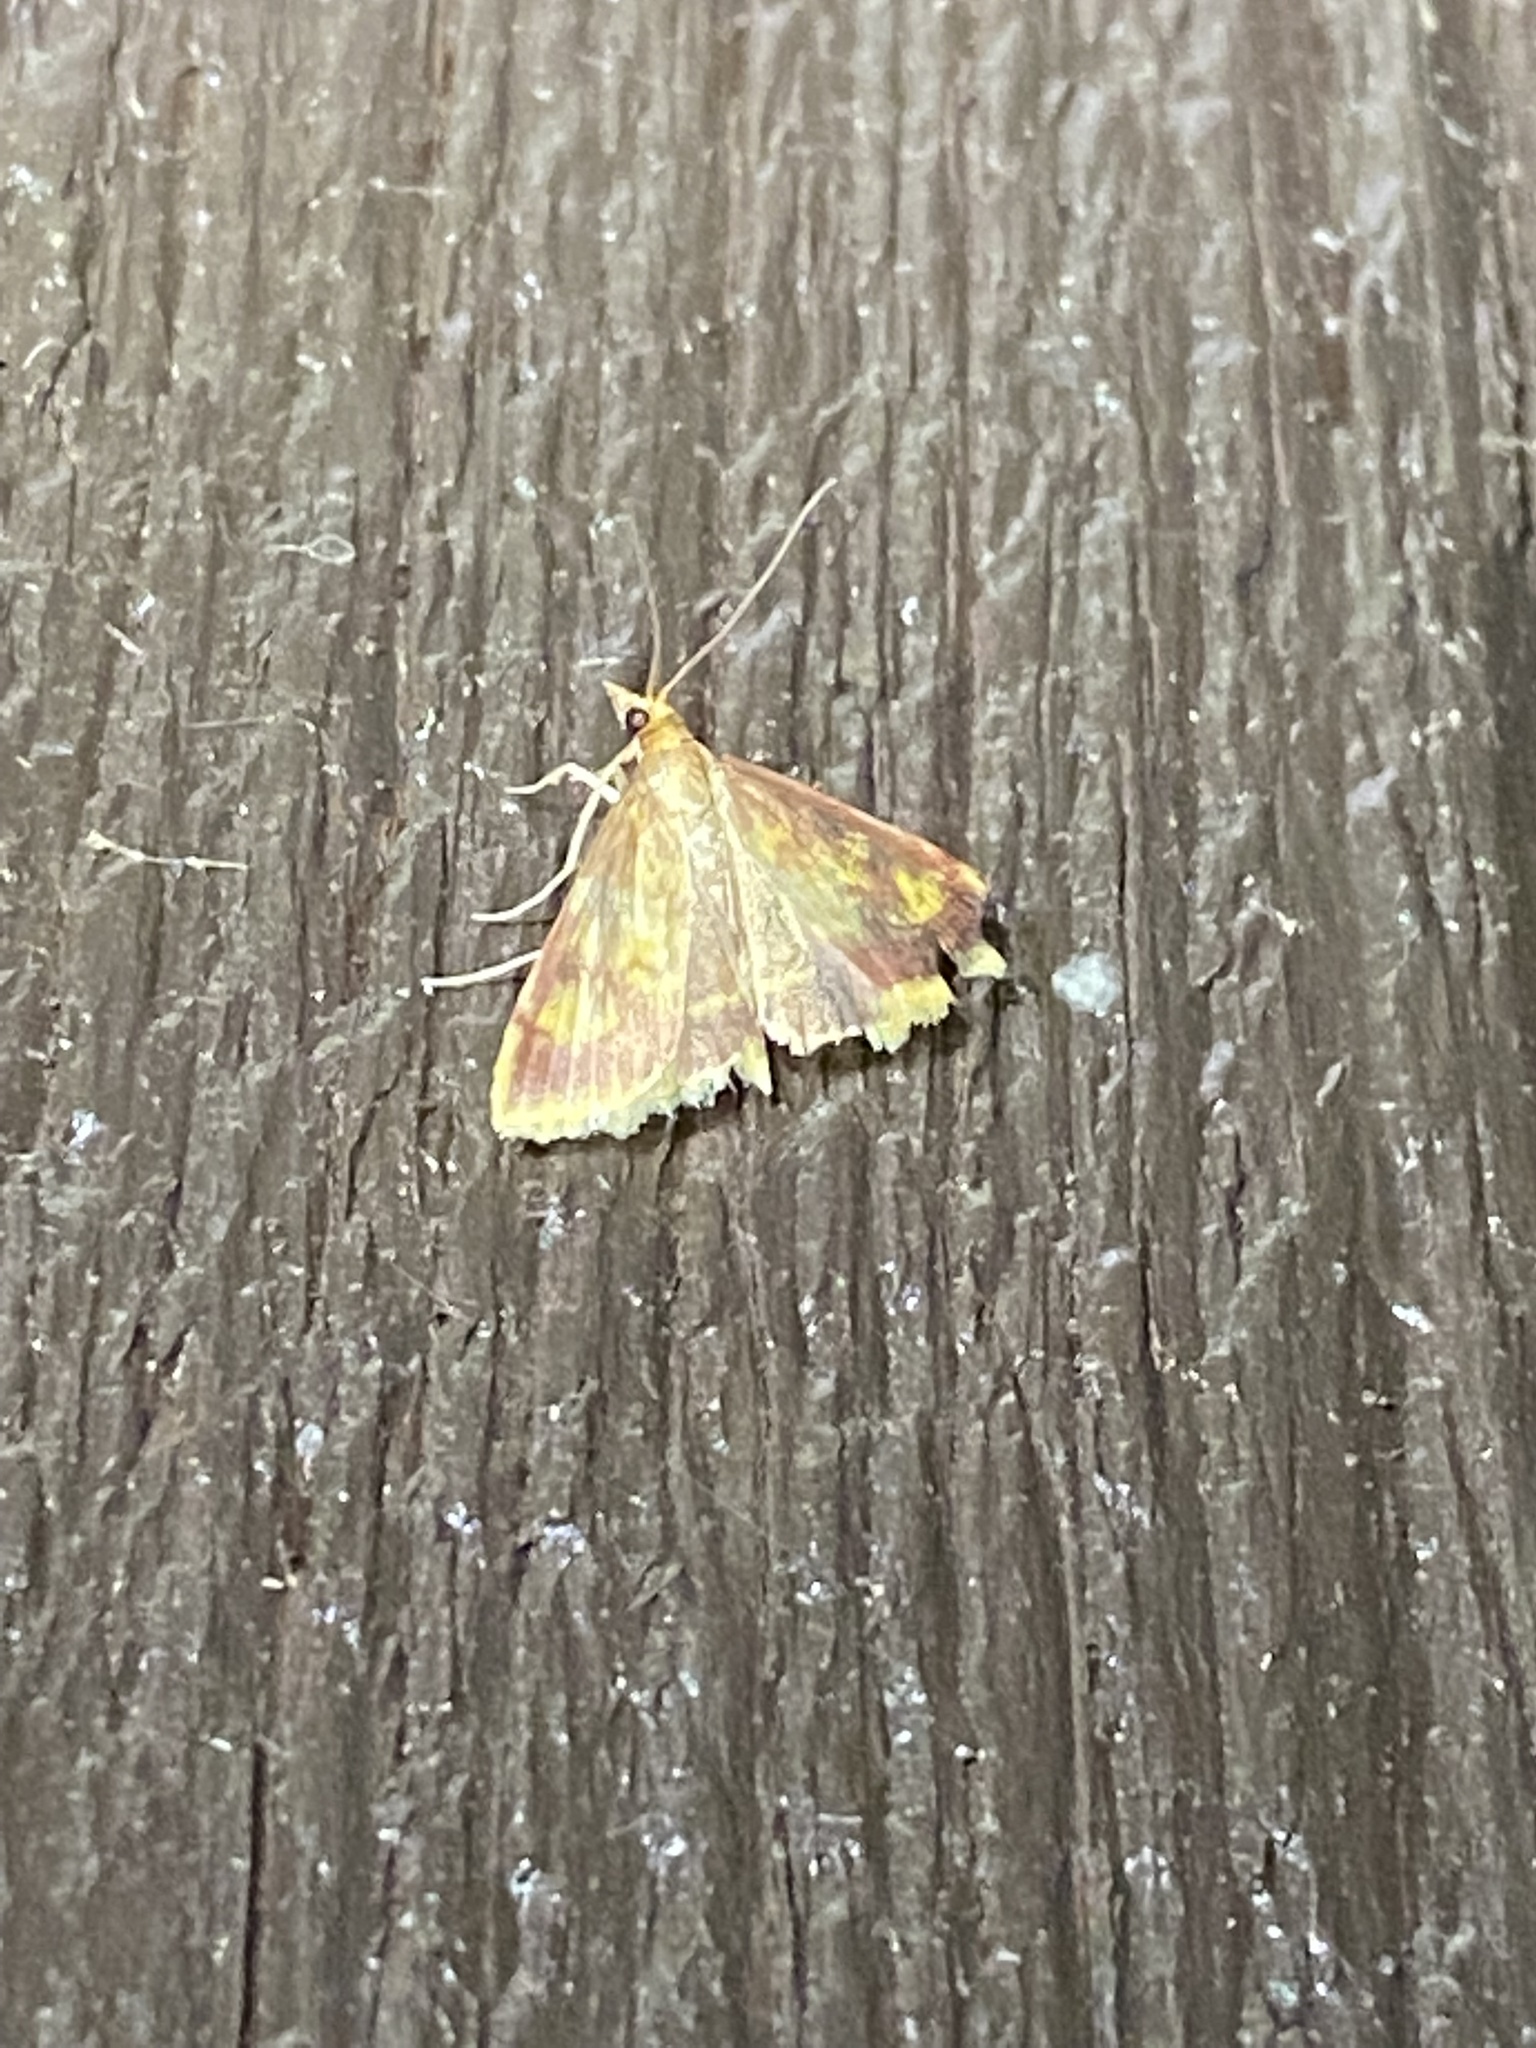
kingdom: Animalia
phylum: Arthropoda
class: Insecta
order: Lepidoptera
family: Crambidae
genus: Pyrausta
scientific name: Pyrausta acrionalis
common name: Mint-loving pyrausta moth
